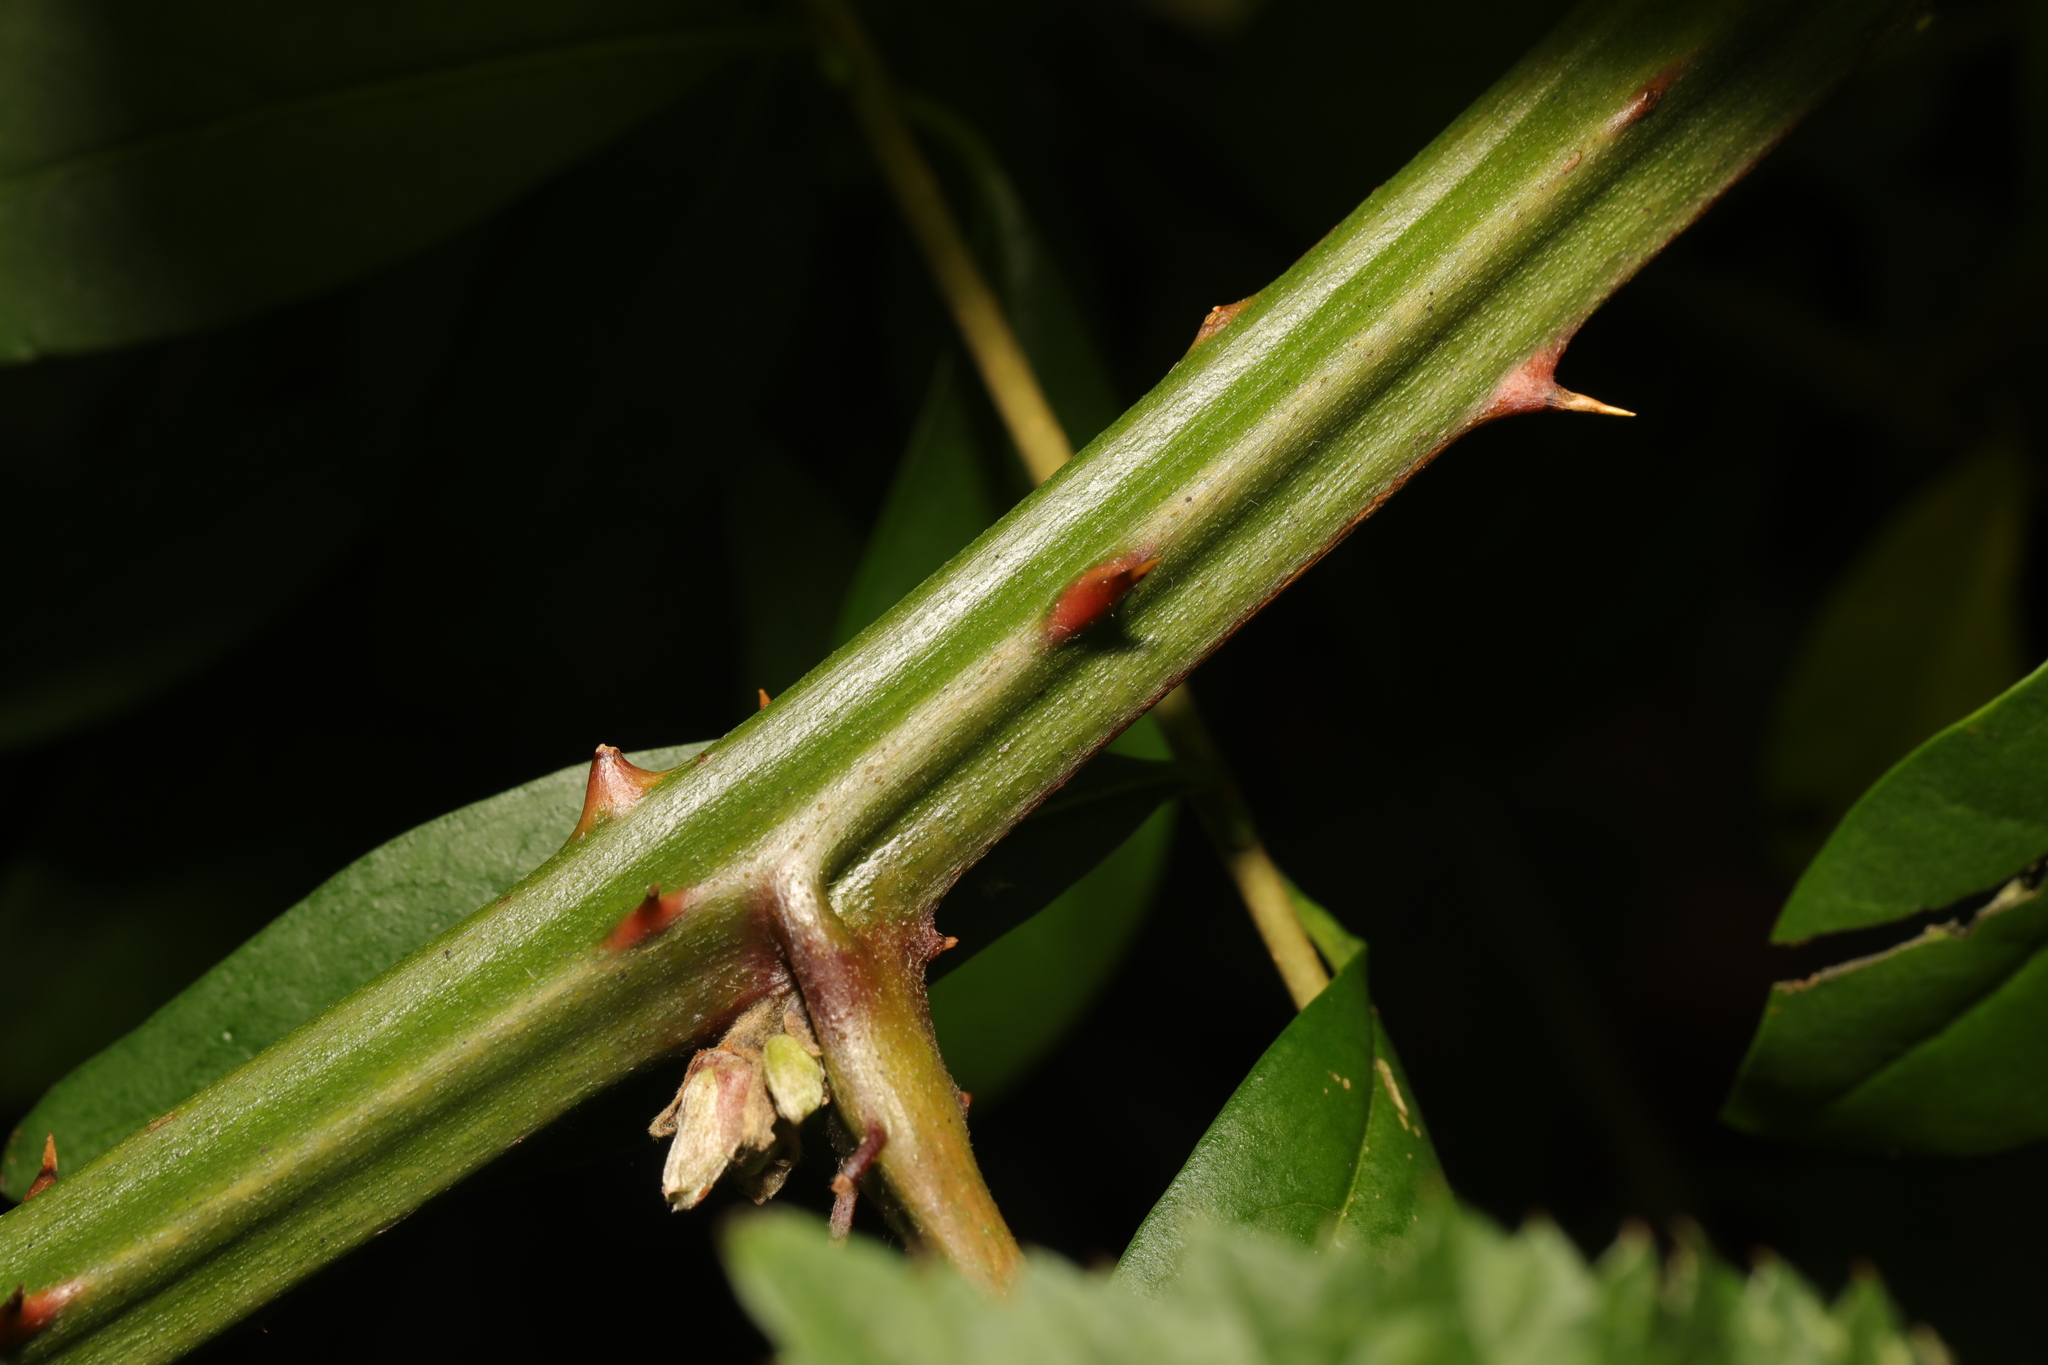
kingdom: Plantae
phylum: Tracheophyta
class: Magnoliopsida
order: Rosales
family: Rosaceae
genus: Rubus
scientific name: Rubus armeniacus
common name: Himalayan blackberry
